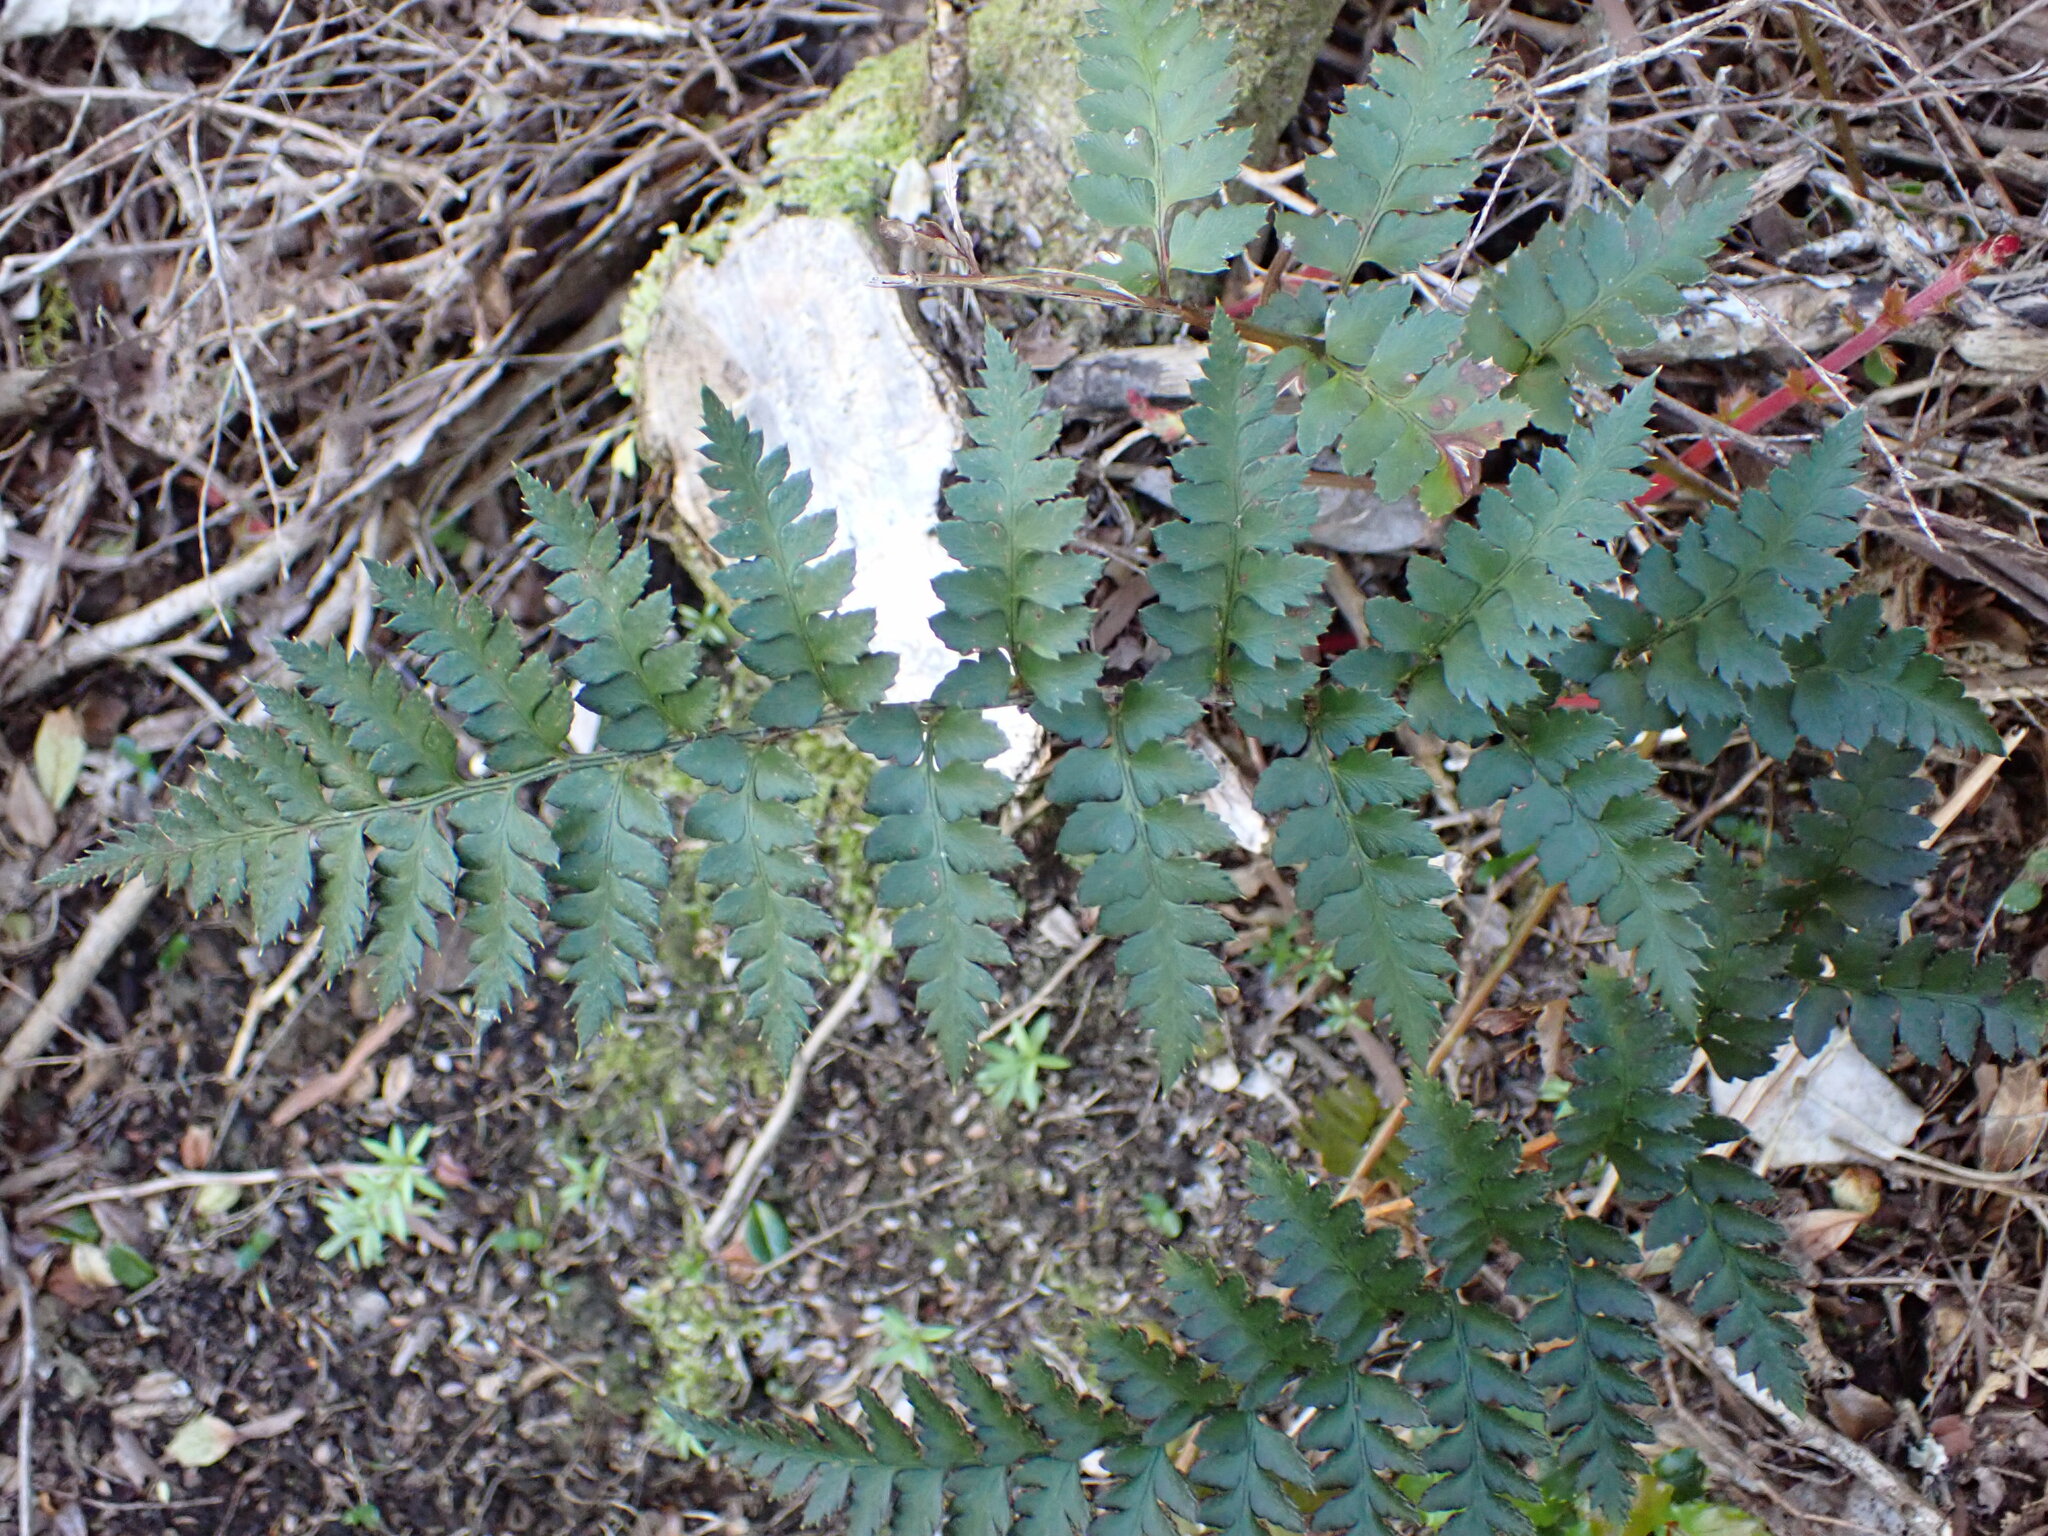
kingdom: Plantae
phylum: Tracheophyta
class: Polypodiopsida
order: Polypodiales
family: Dryopteridaceae
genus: Polystichum
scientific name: Polystichum oculatum
